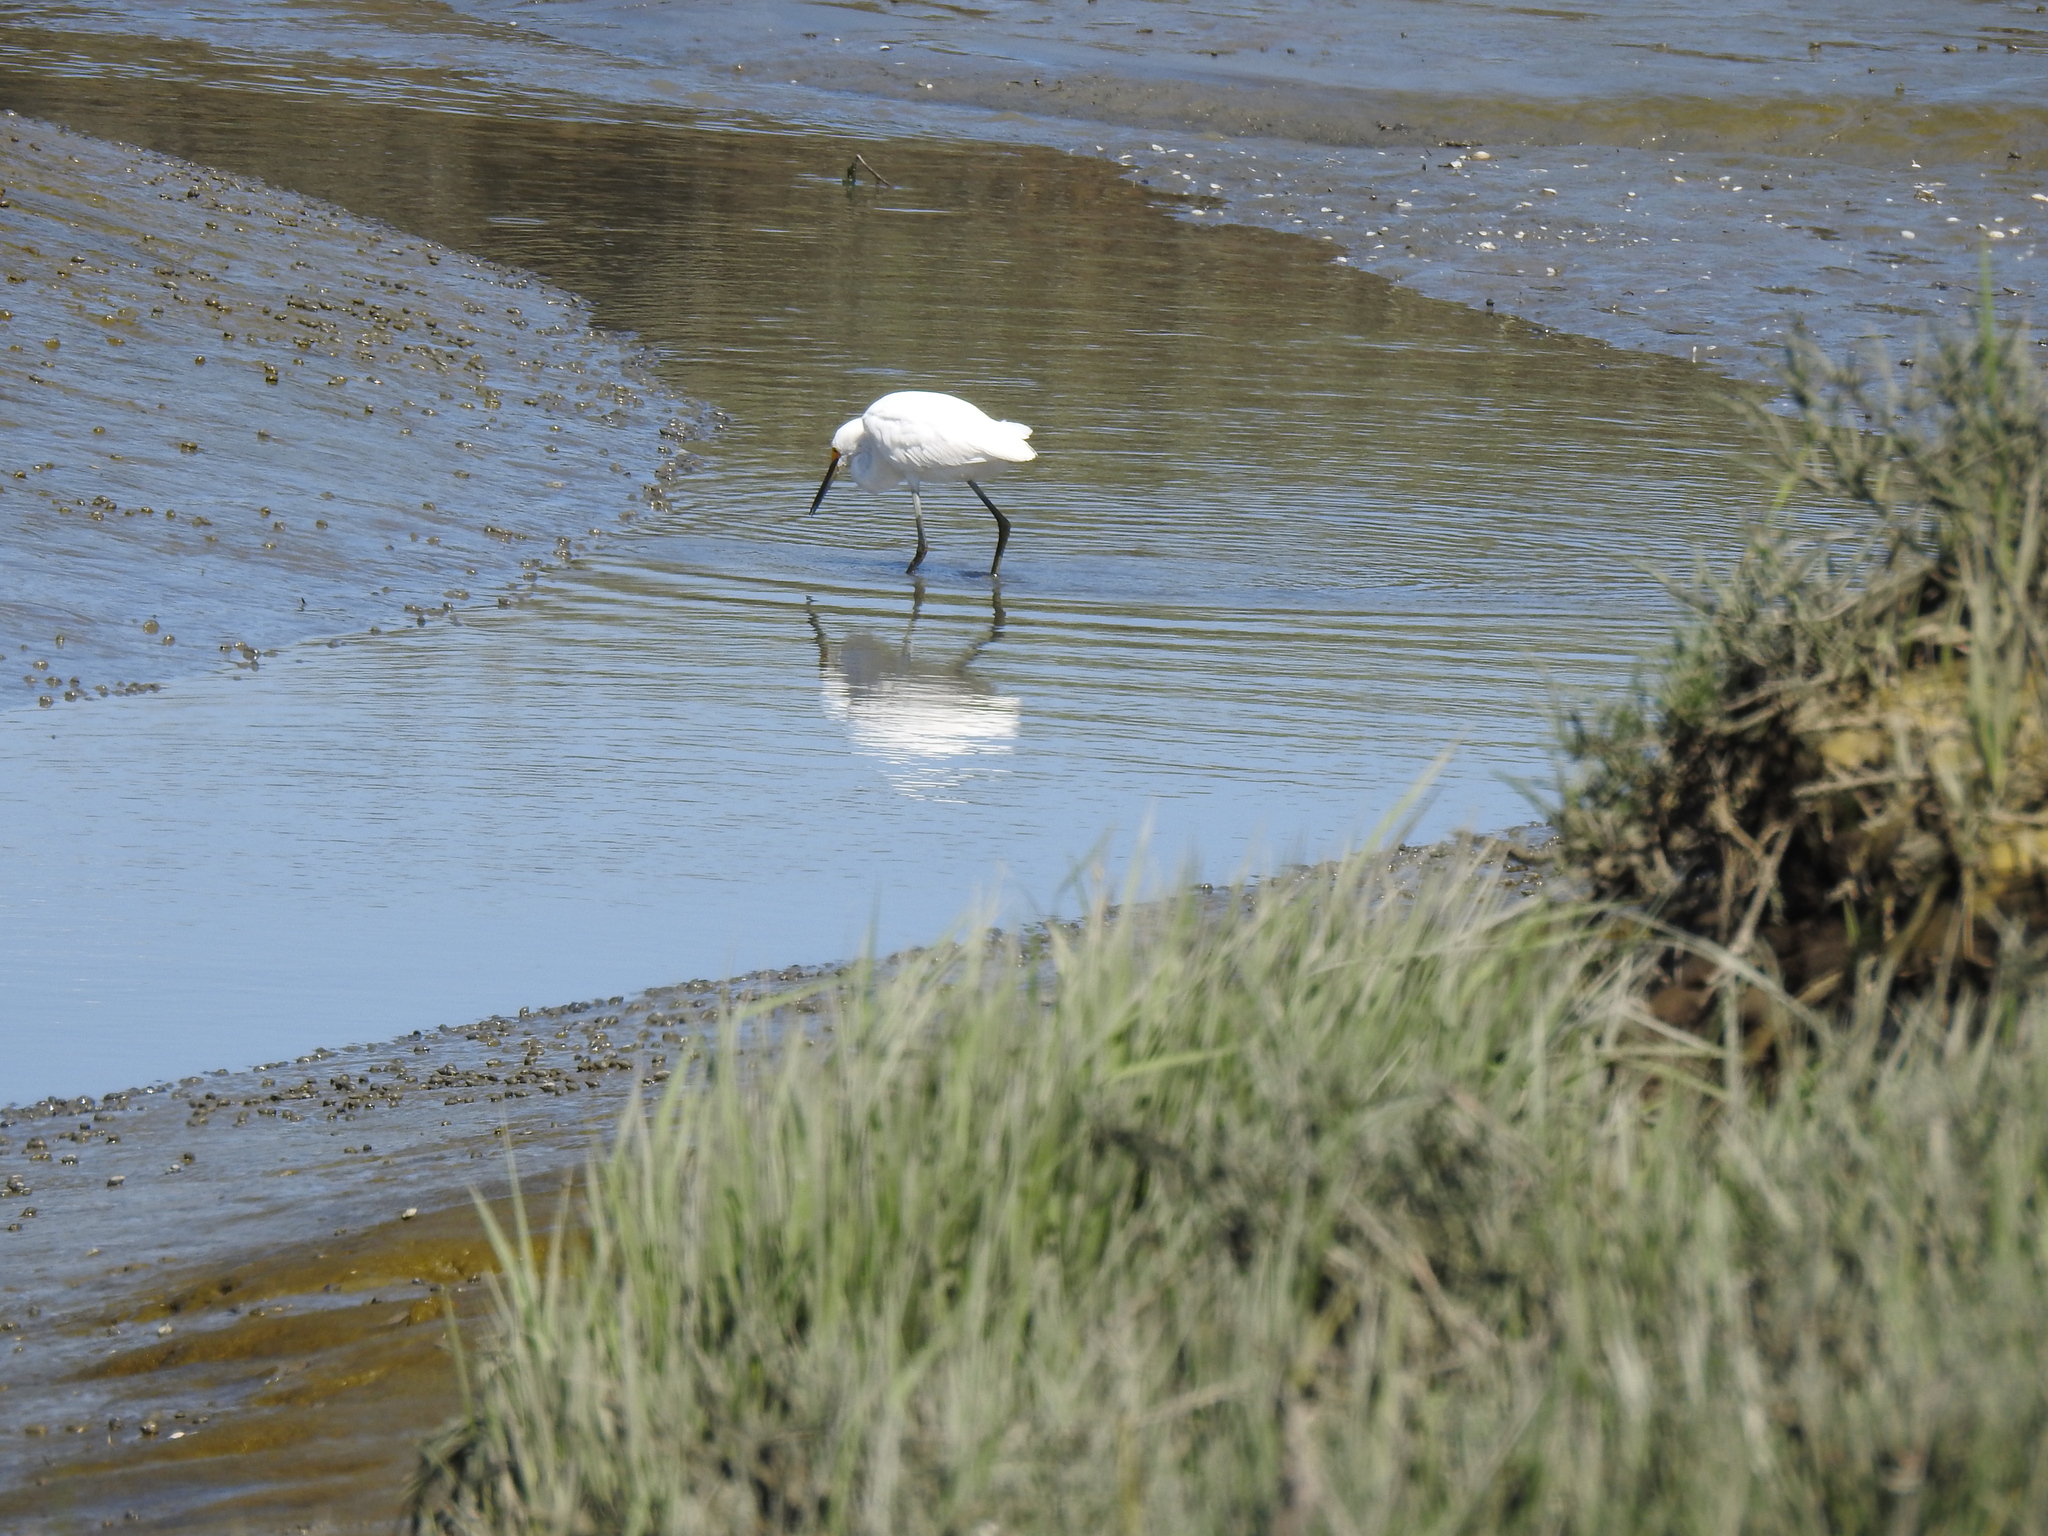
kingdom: Animalia
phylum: Chordata
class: Aves
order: Pelecaniformes
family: Ardeidae
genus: Egretta
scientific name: Egretta thula
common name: Snowy egret
